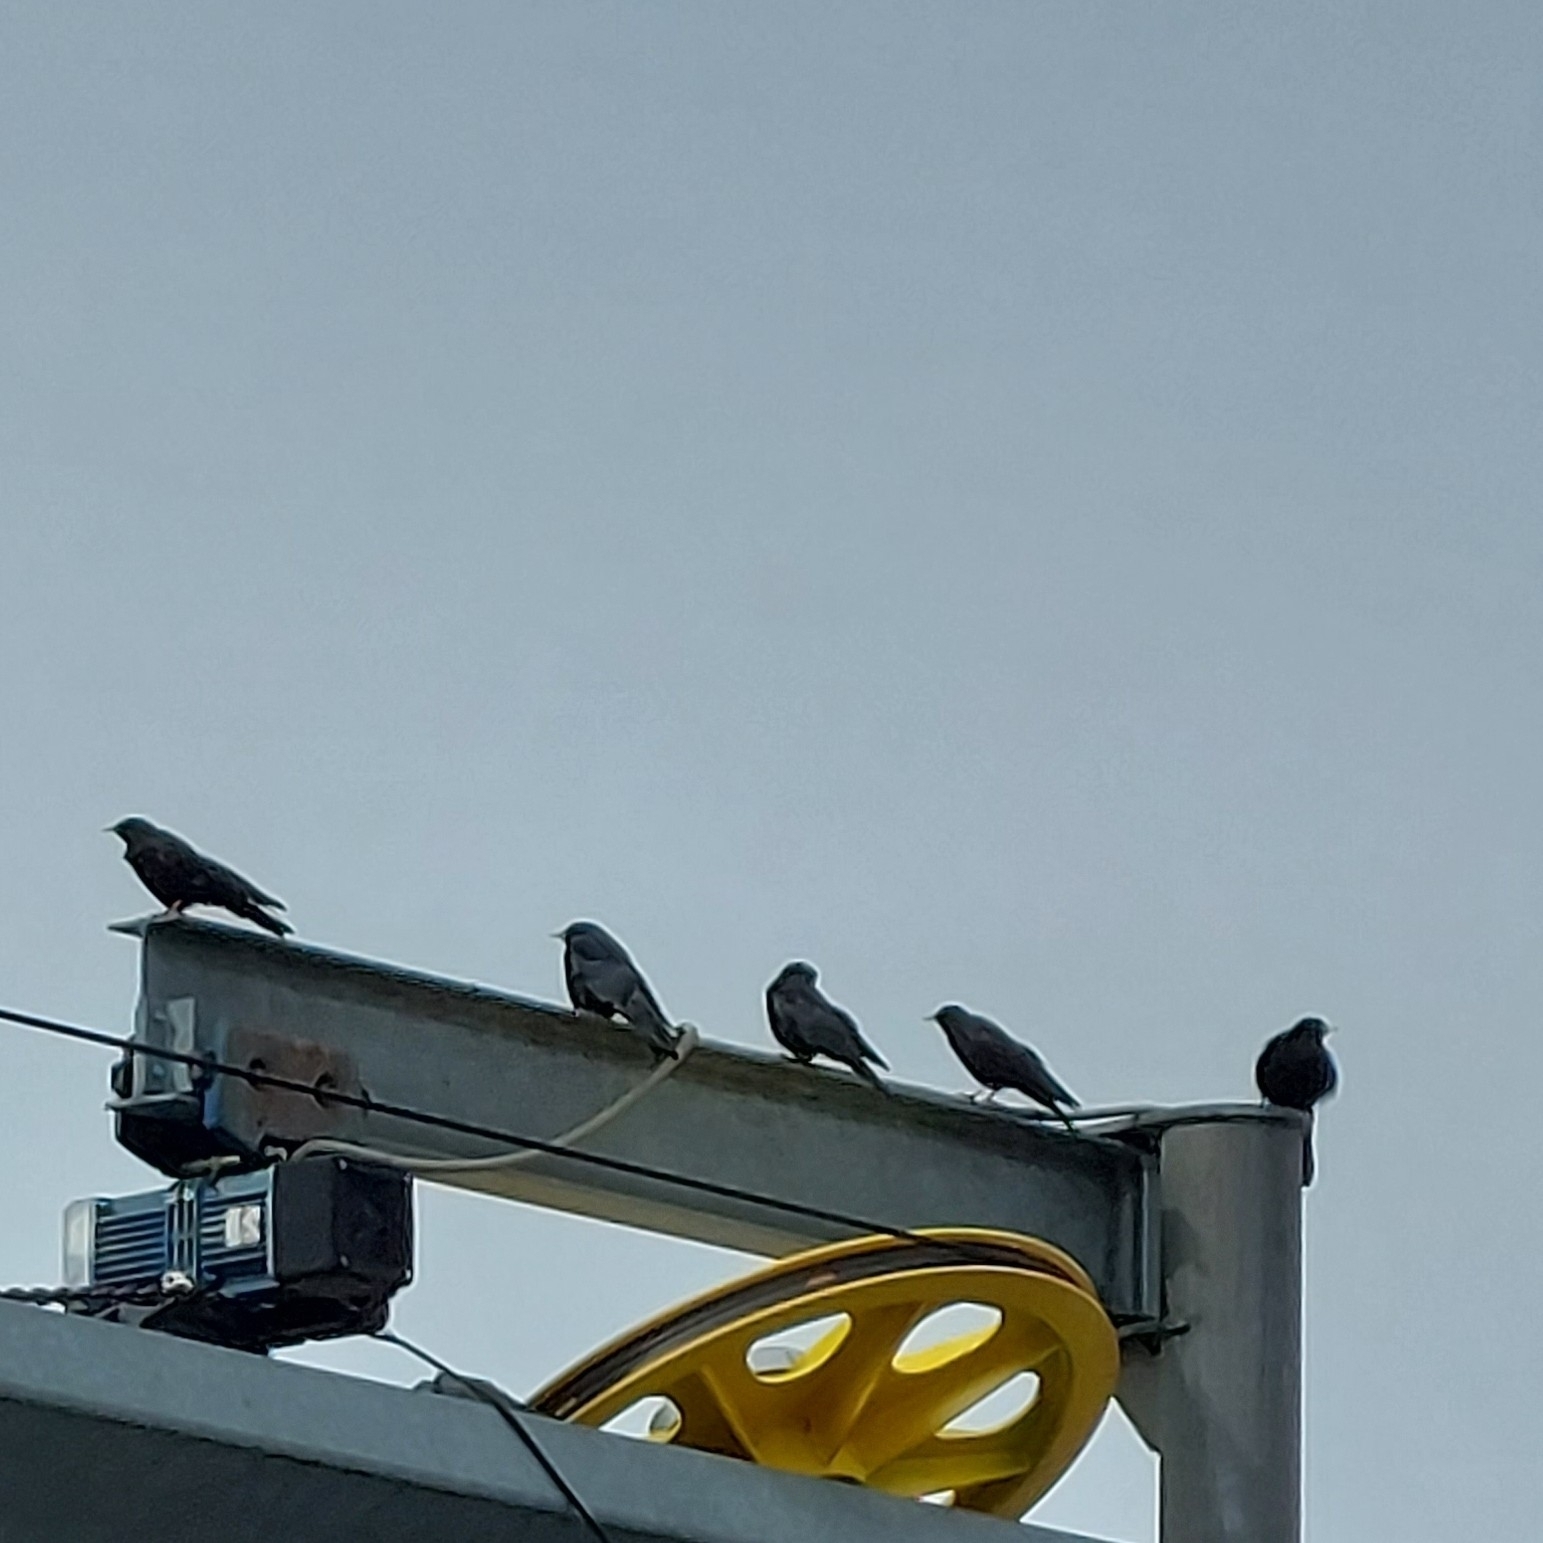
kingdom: Animalia
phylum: Chordata
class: Aves
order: Passeriformes
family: Corvidae
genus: Pyrrhocorax
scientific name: Pyrrhocorax graculus
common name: Alpine chough
